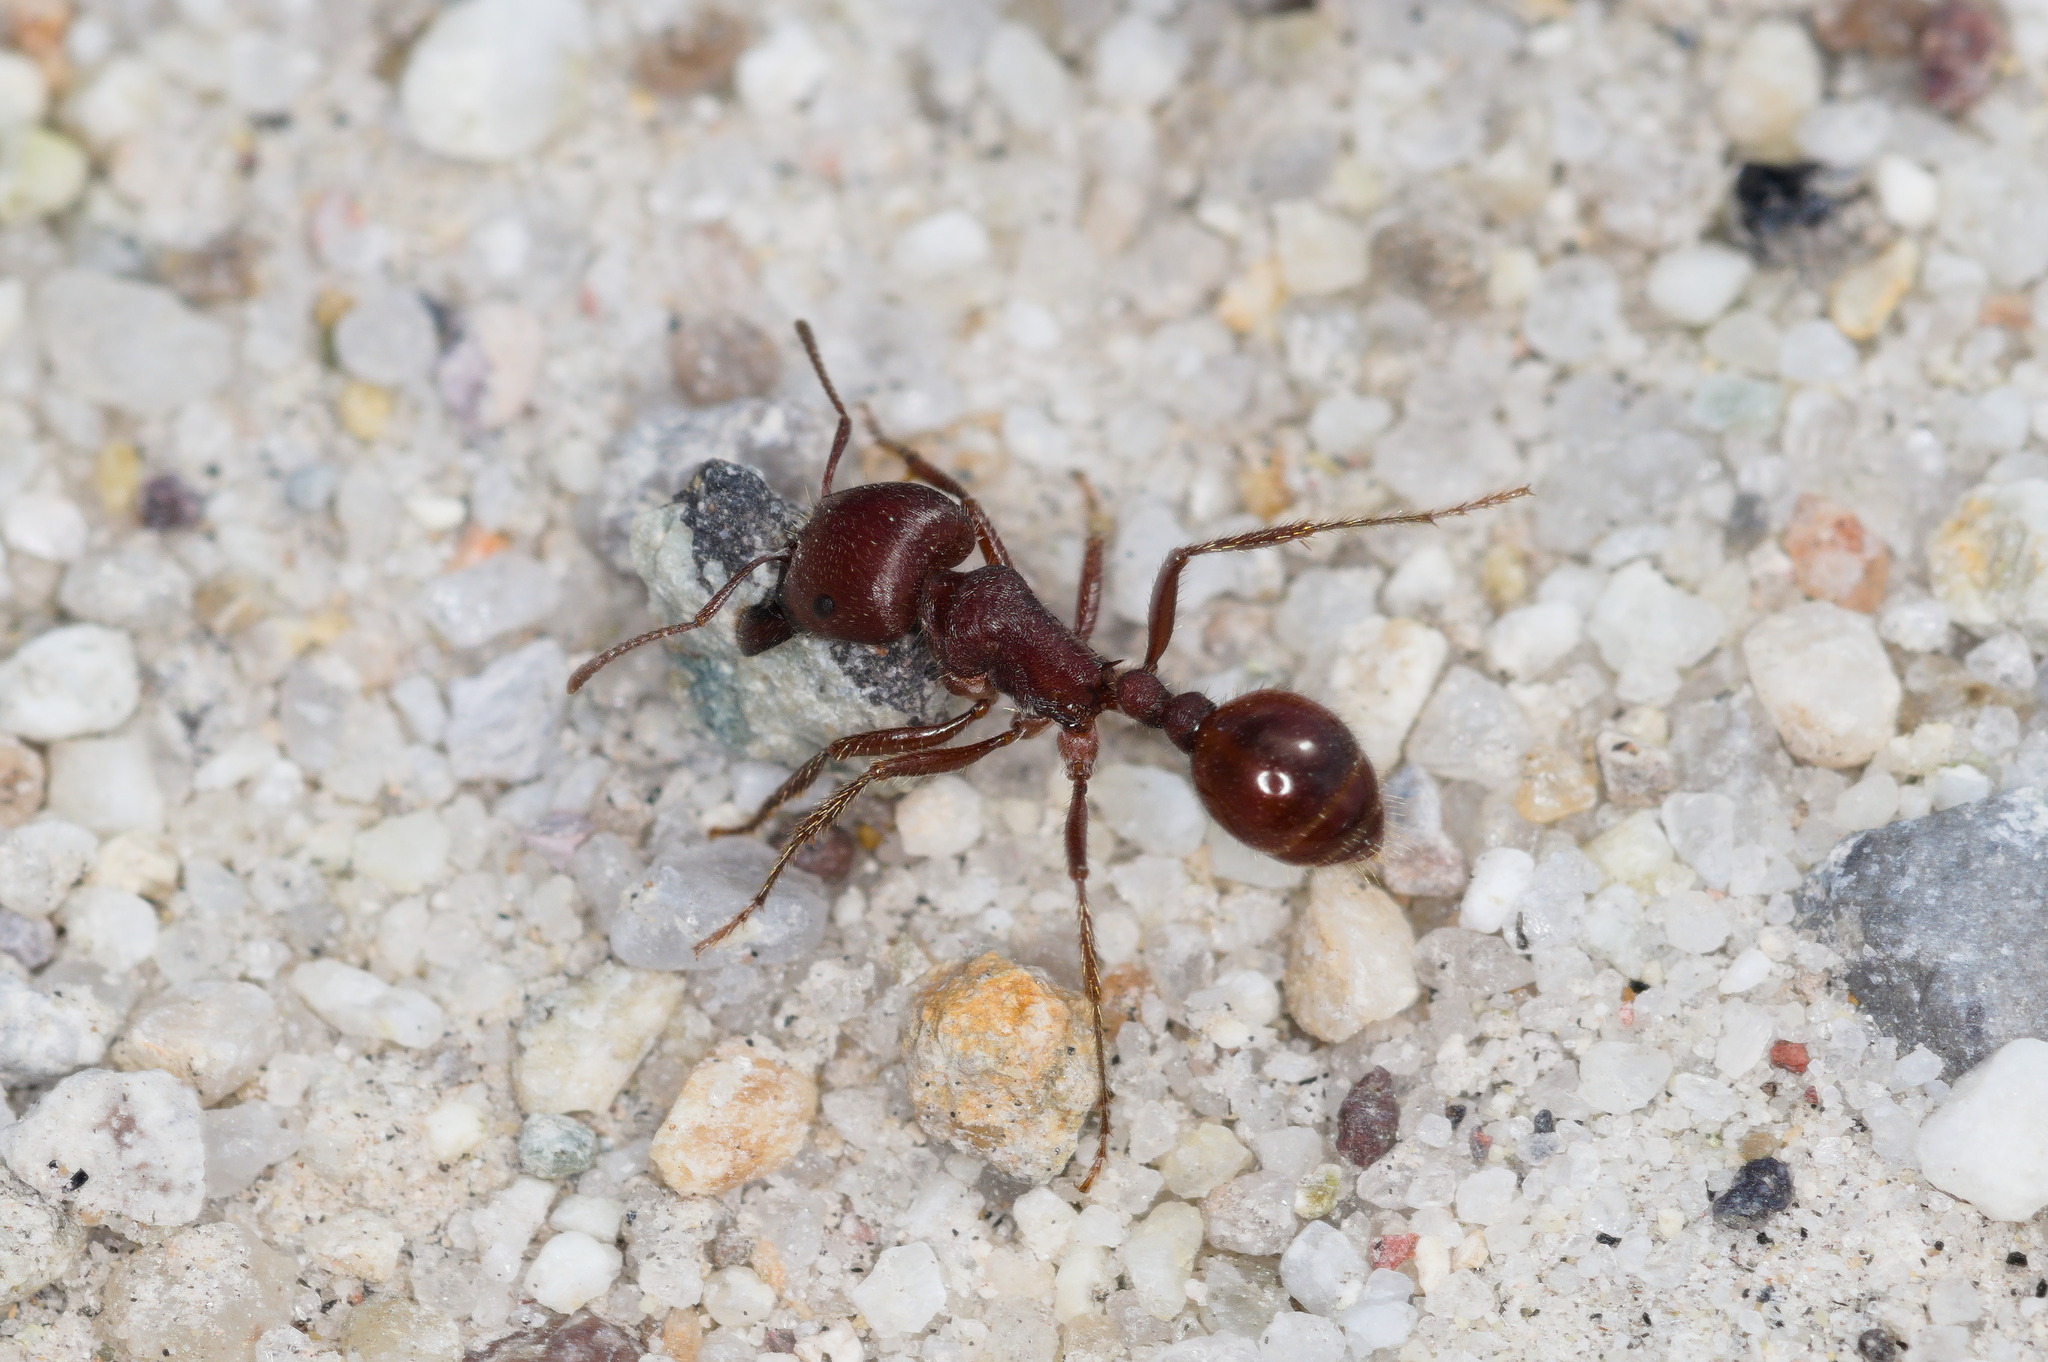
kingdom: Animalia
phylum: Arthropoda
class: Insecta
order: Hymenoptera
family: Formicidae
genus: Pogonomyrmex
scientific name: Pogonomyrmex barbatus
